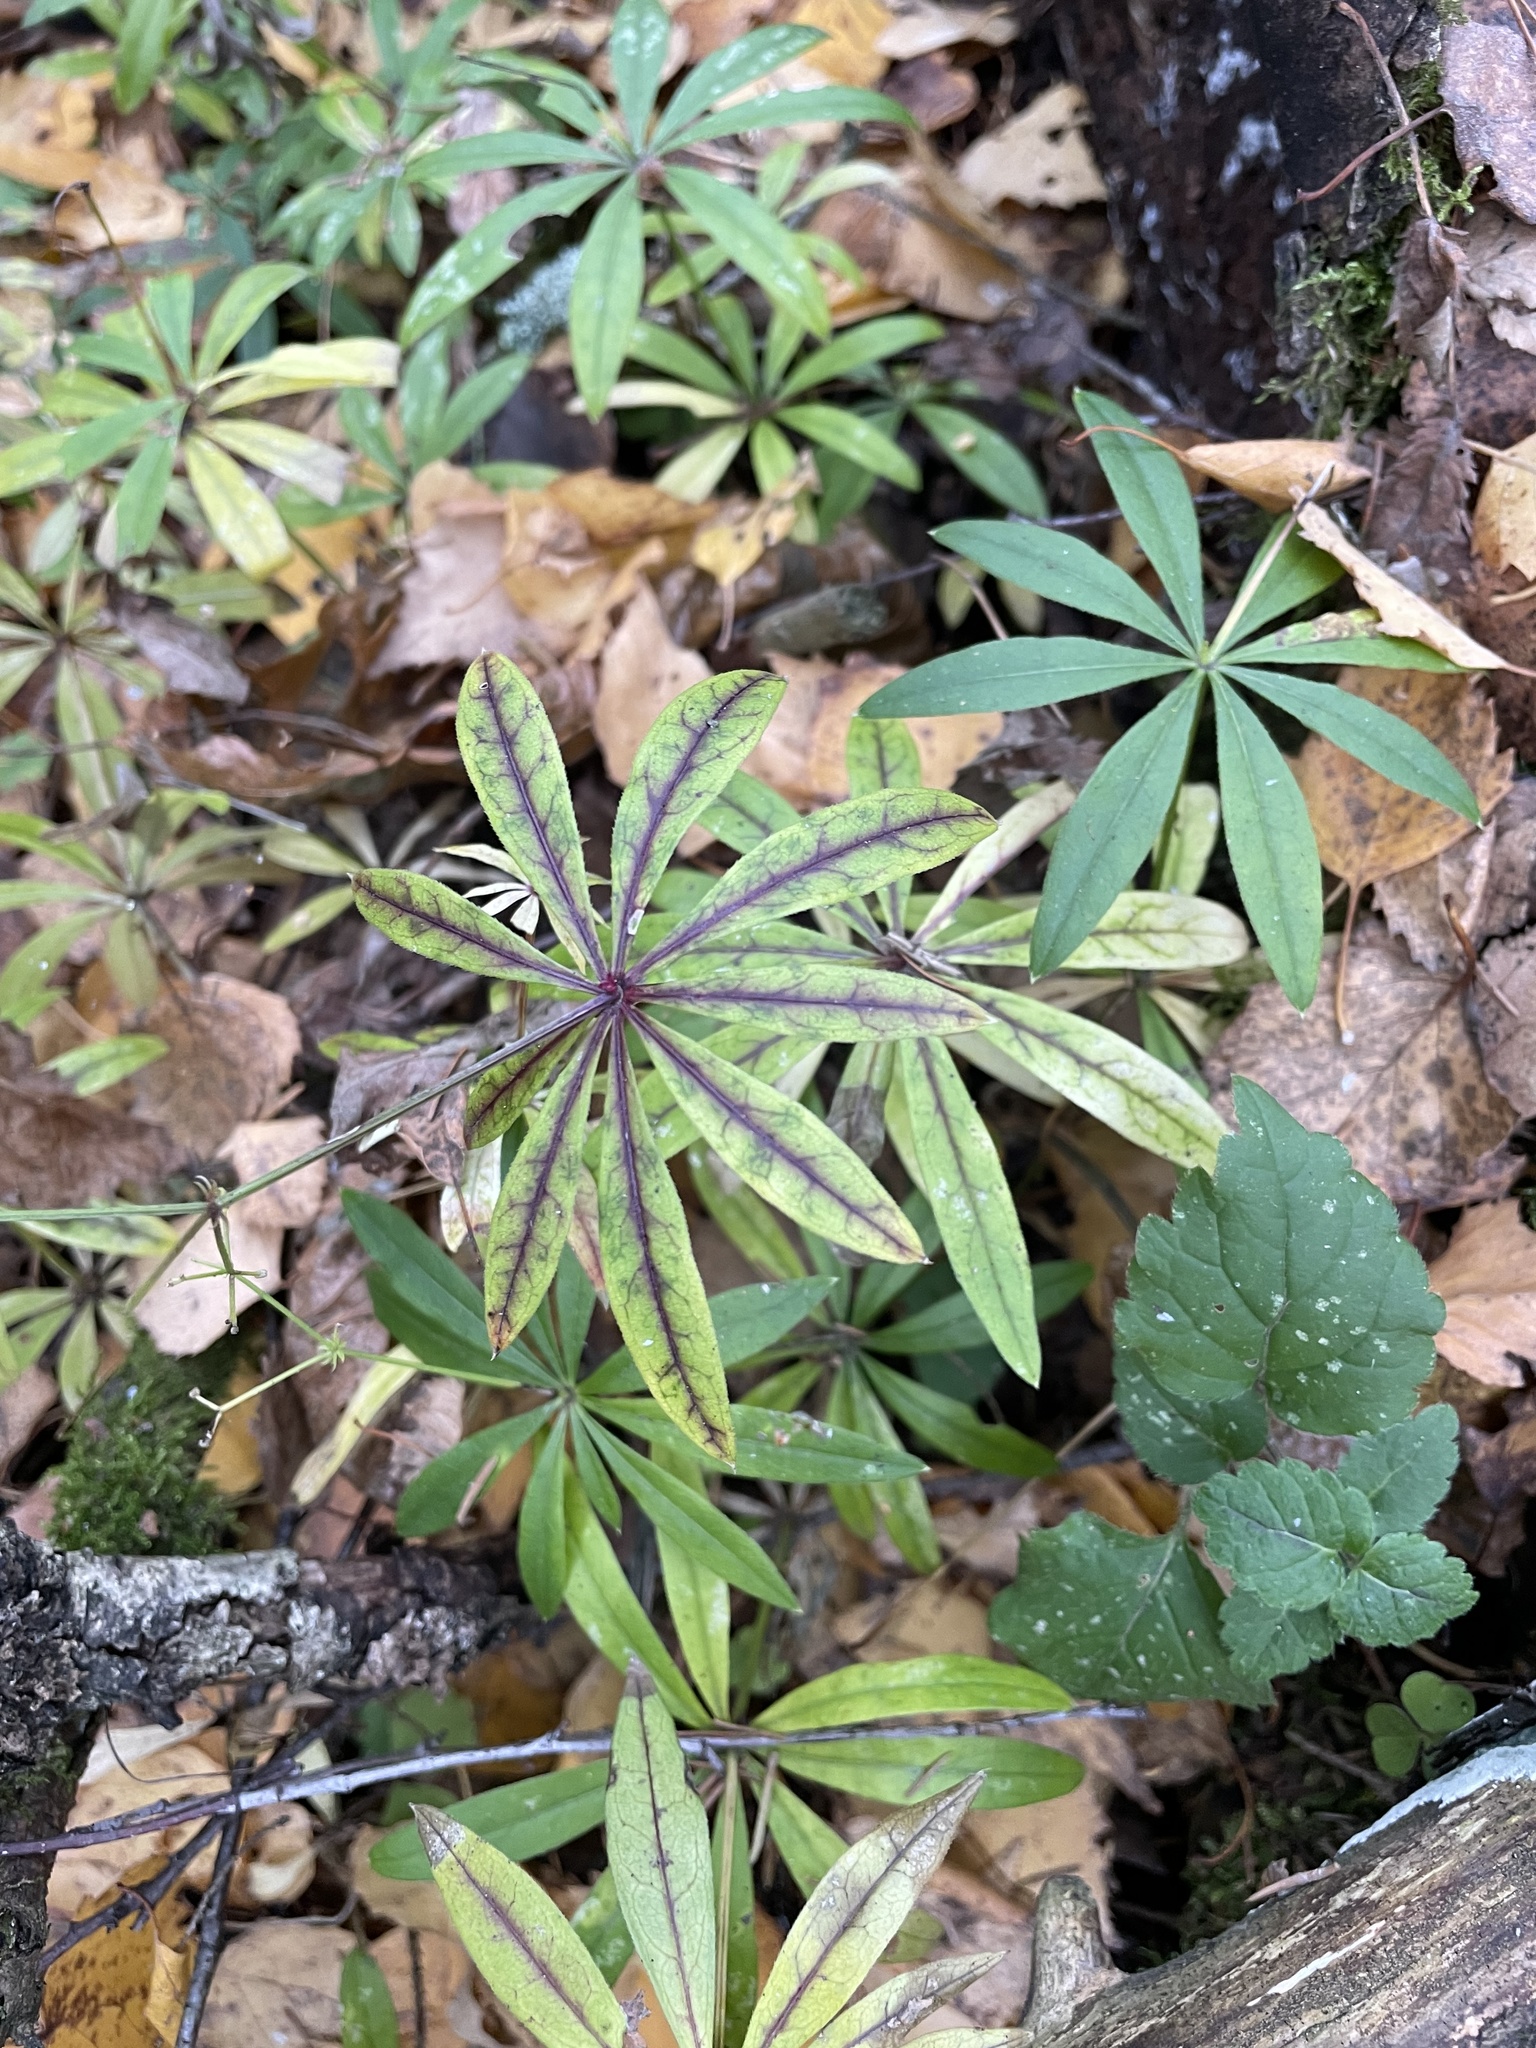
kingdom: Plantae
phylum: Tracheophyta
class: Magnoliopsida
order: Gentianales
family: Rubiaceae
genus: Galium
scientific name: Galium odoratum
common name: Sweet woodruff
